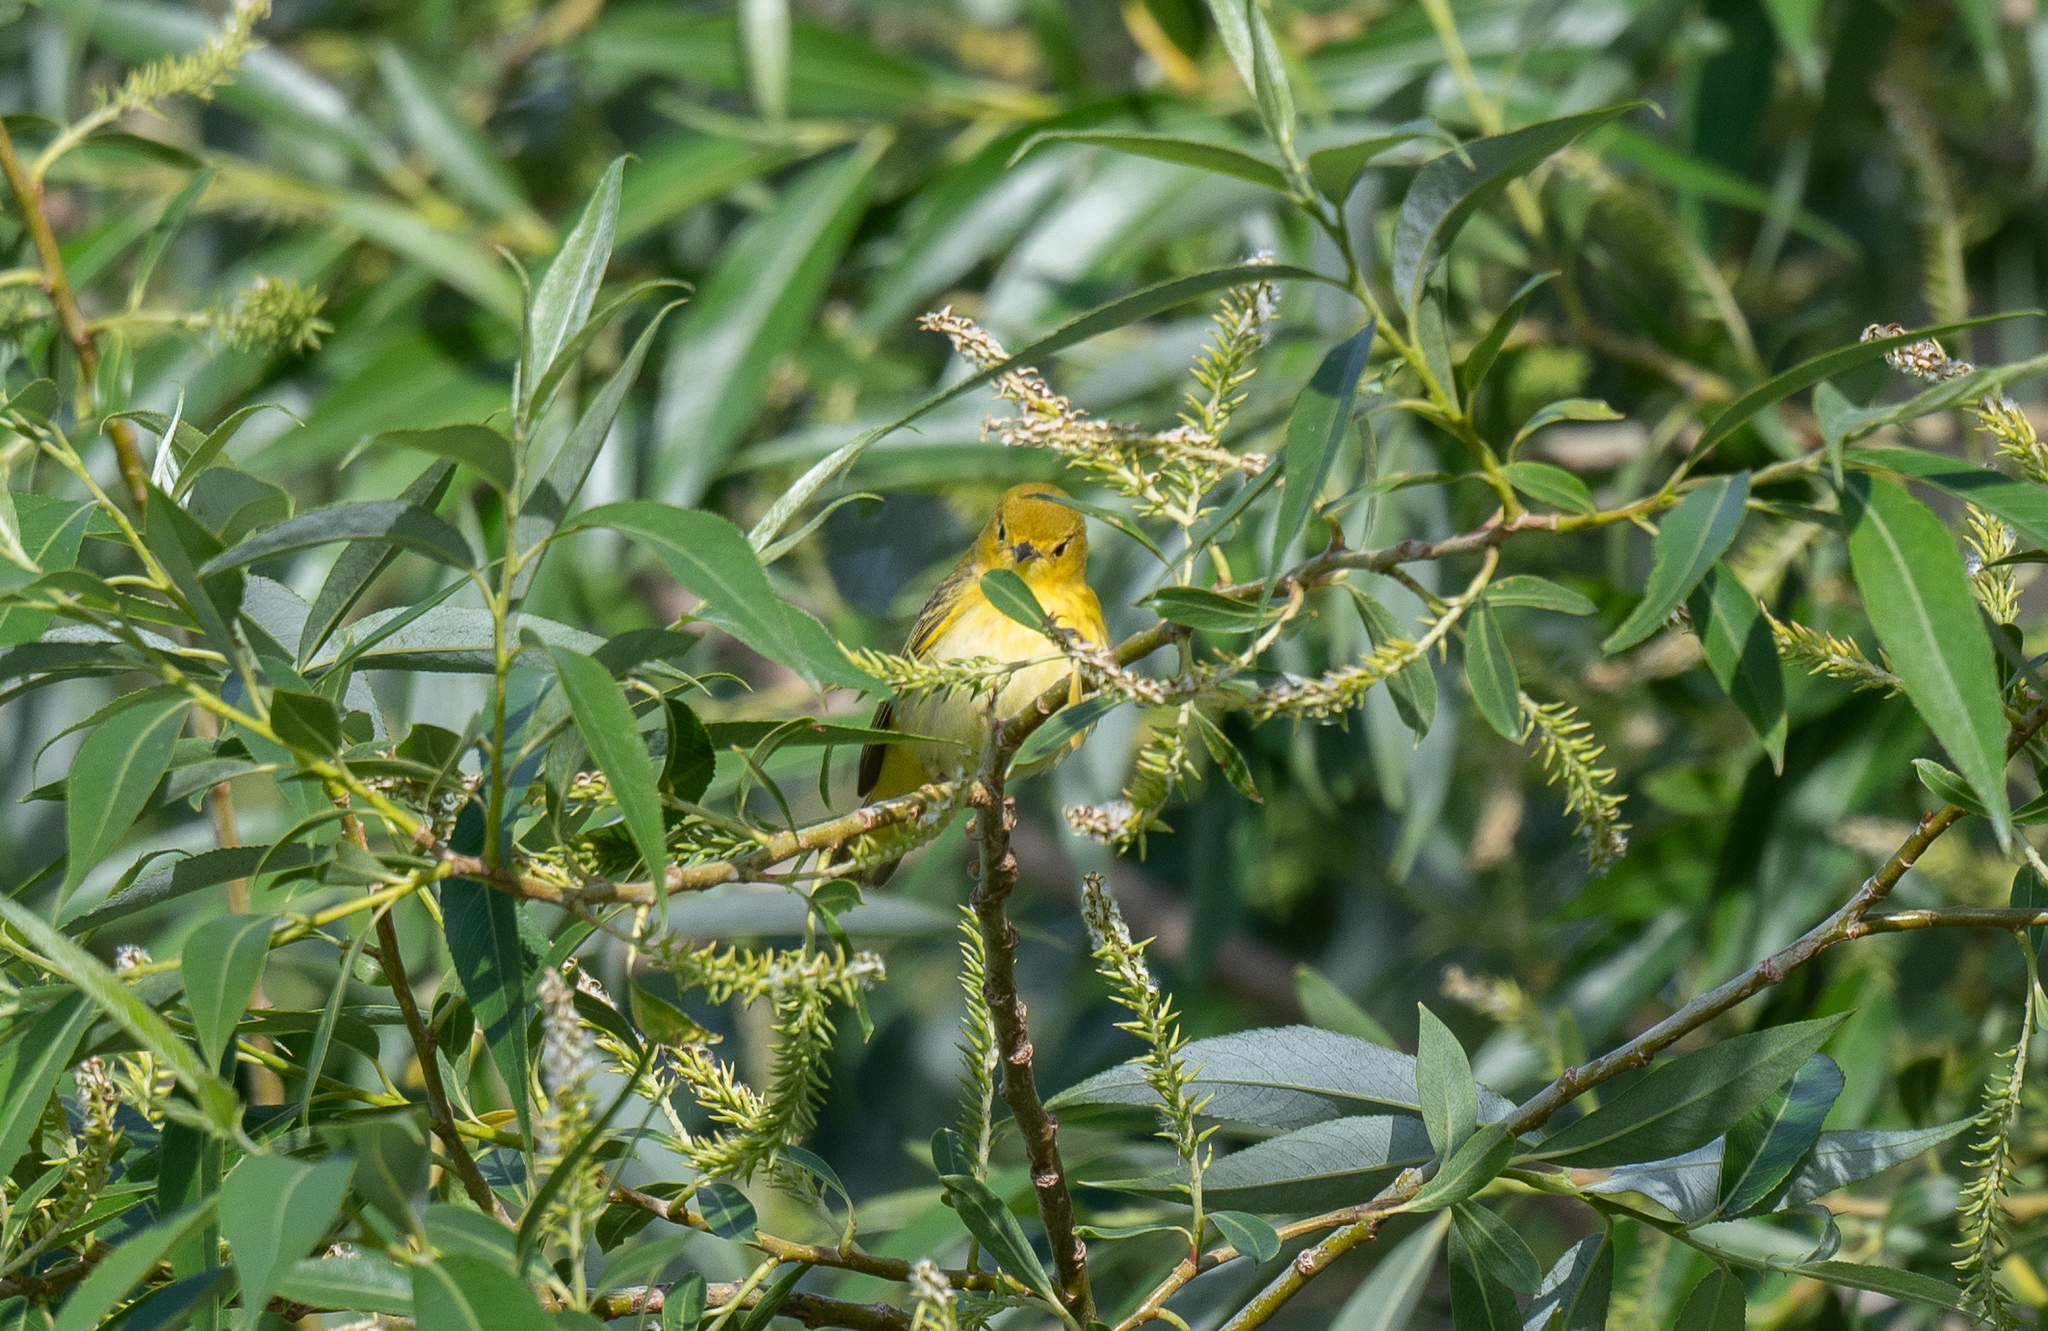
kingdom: Animalia
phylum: Chordata
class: Aves
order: Passeriformes
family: Parulidae
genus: Setophaga
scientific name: Setophaga petechia
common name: Yellow warbler
